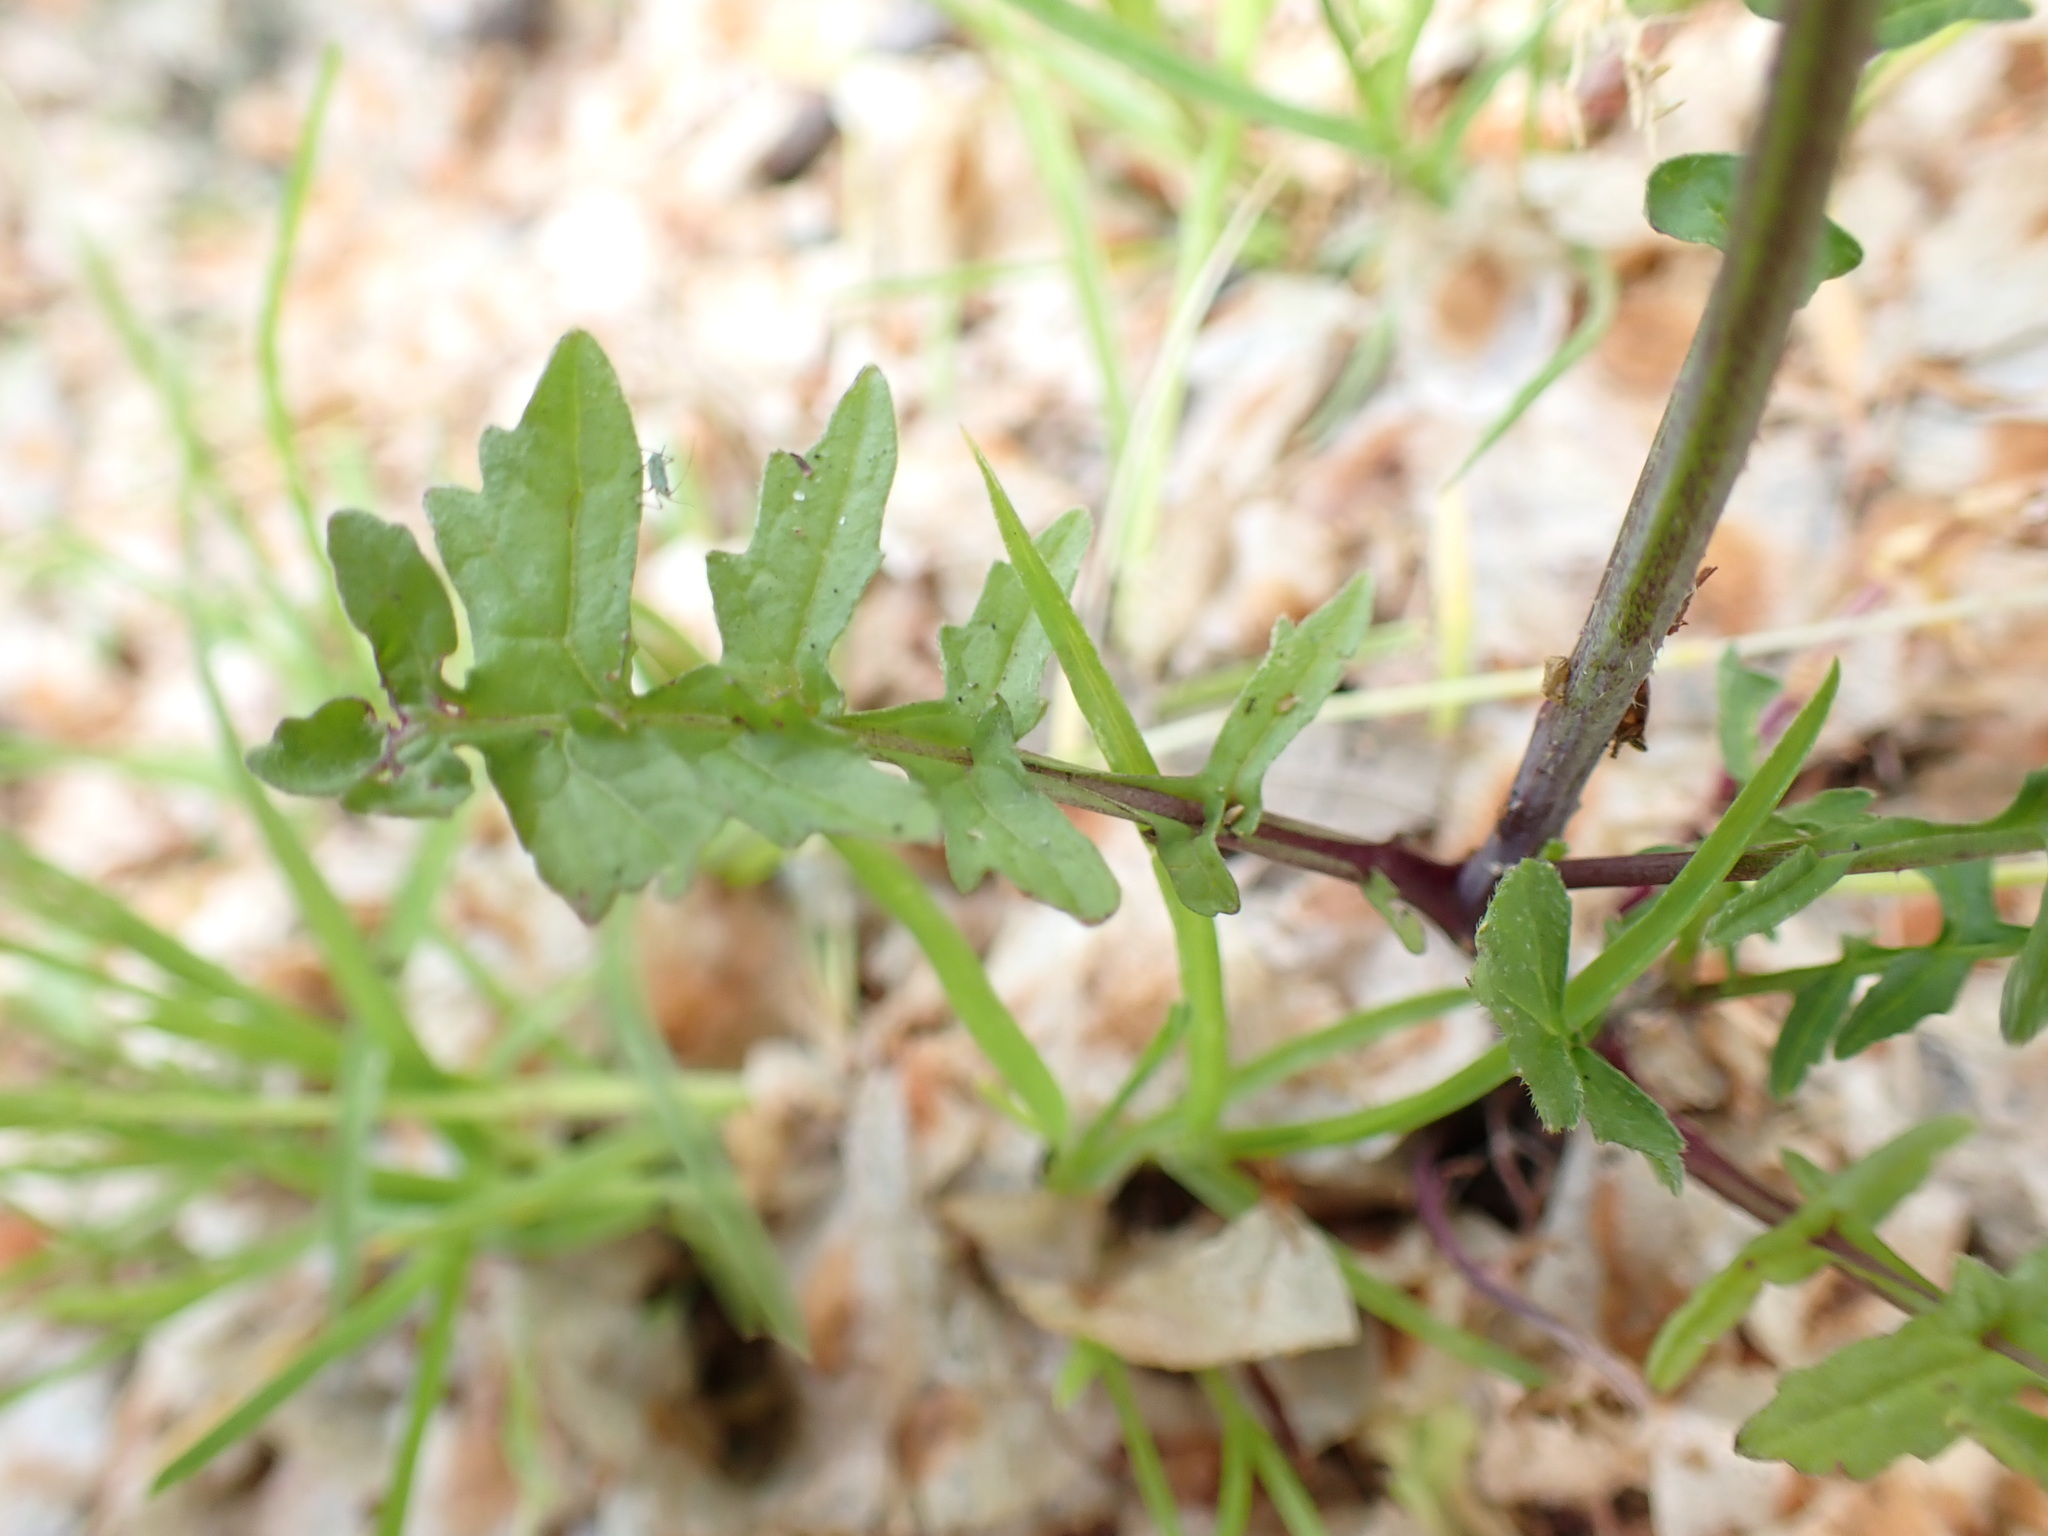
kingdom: Plantae
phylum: Tracheophyta
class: Magnoliopsida
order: Brassicales
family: Brassicaceae
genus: Sisymbrium
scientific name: Sisymbrium officinale
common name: Hedge mustard
